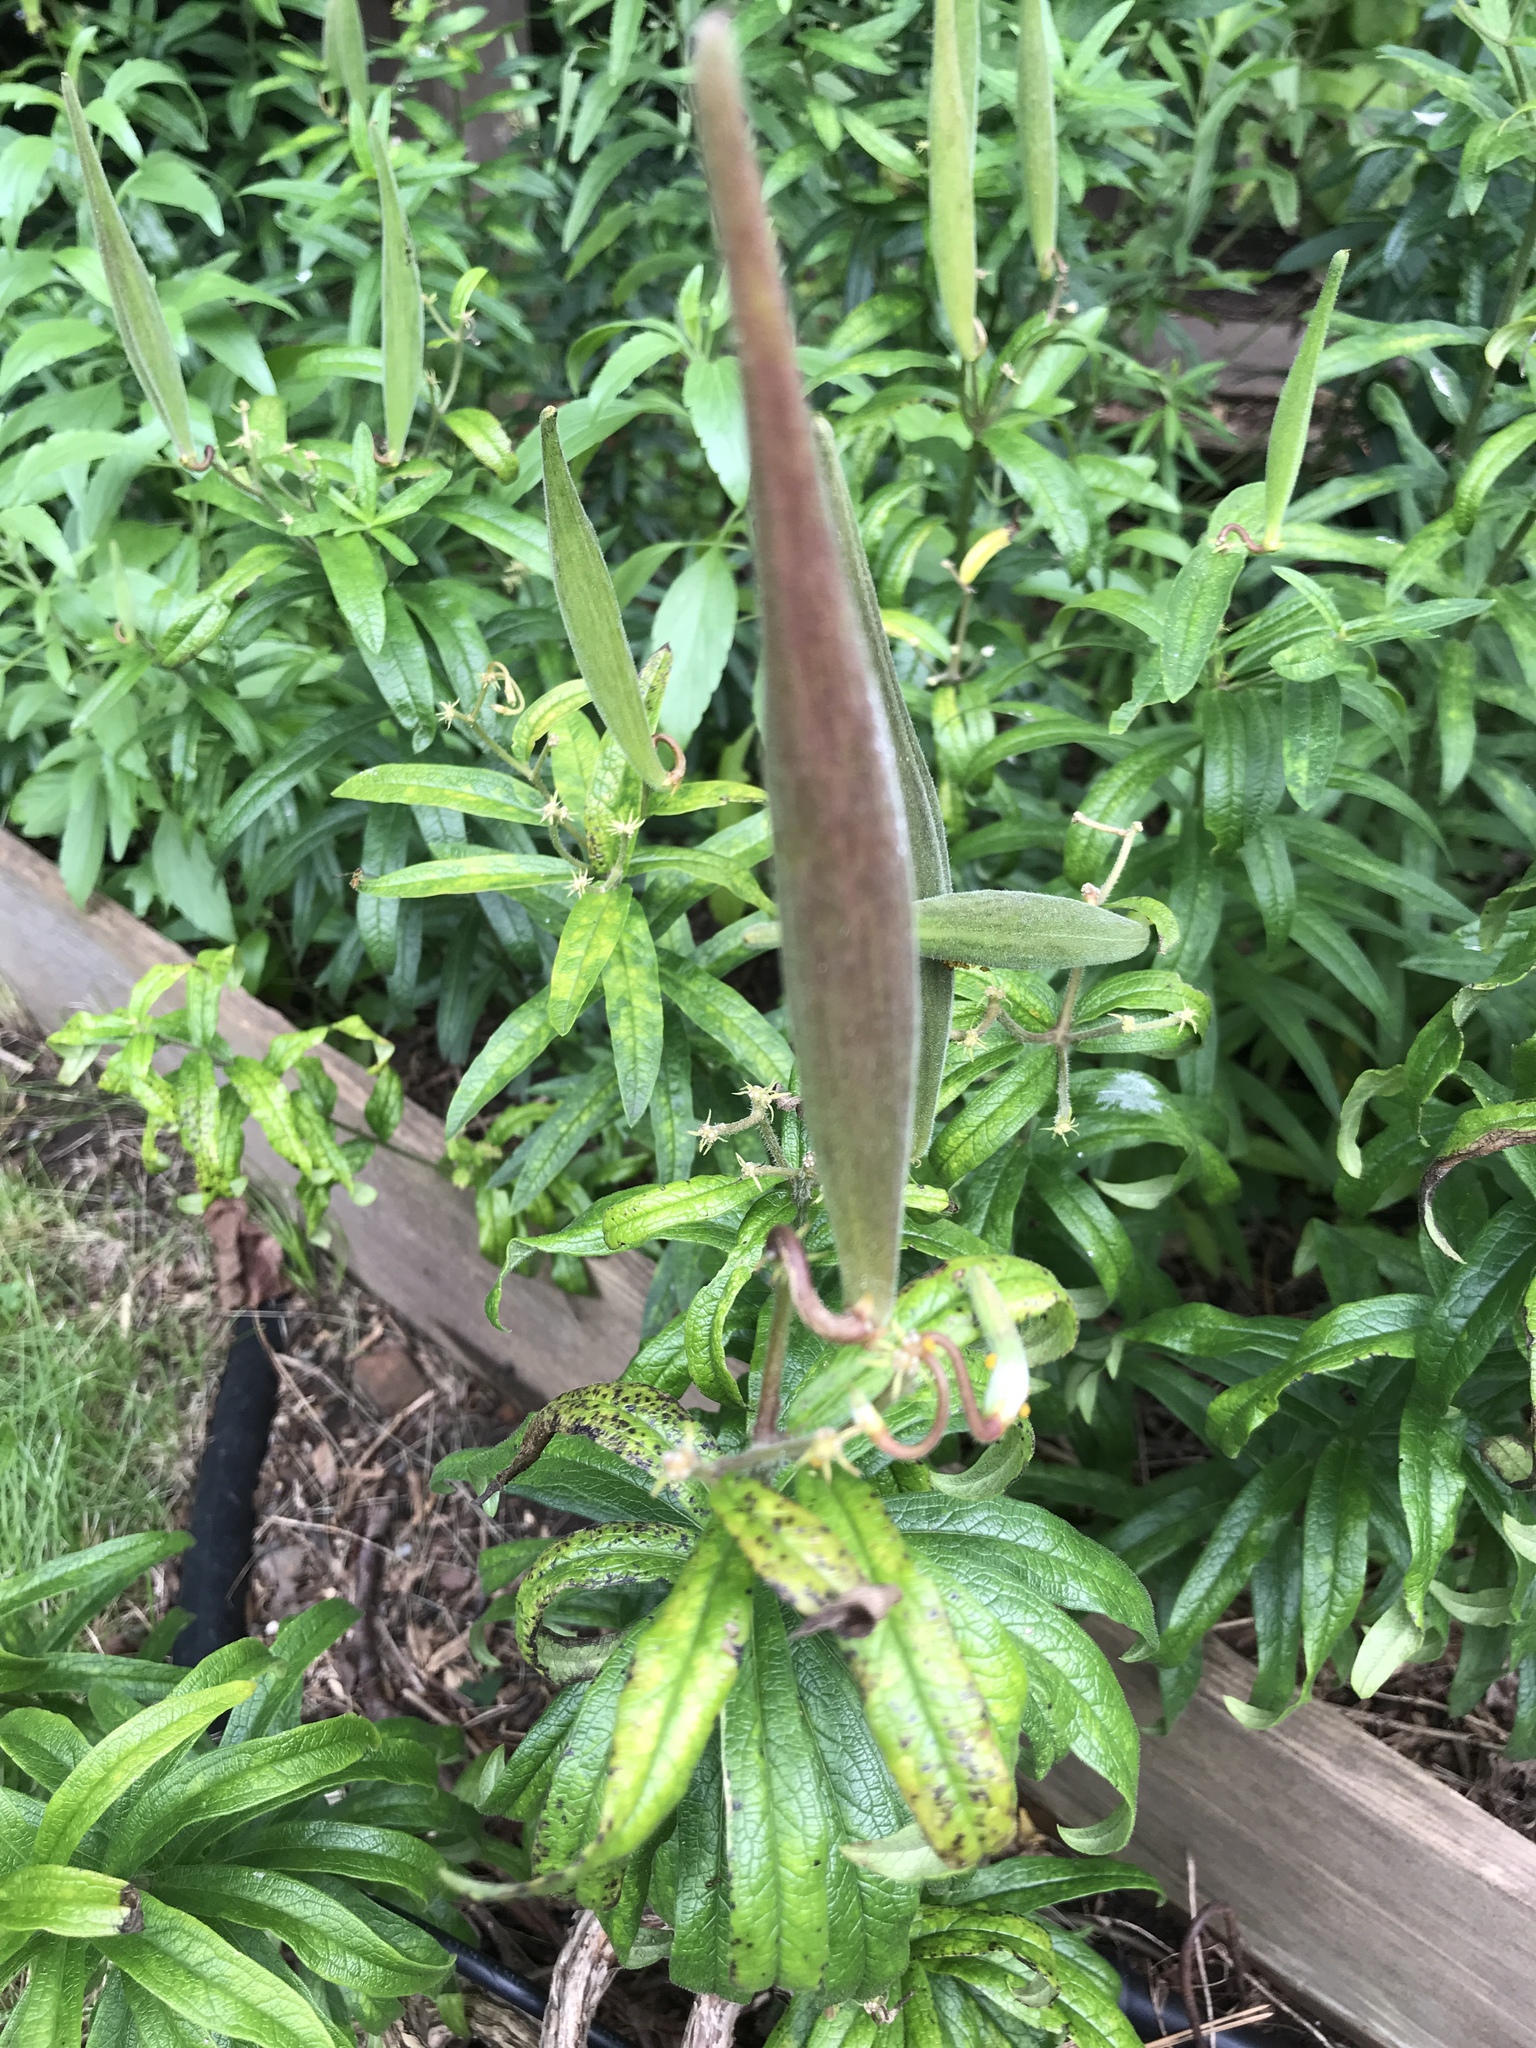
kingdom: Plantae
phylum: Tracheophyta
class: Magnoliopsida
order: Gentianales
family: Apocynaceae
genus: Asclepias
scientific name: Asclepias tuberosa
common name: Butterfly milkweed
